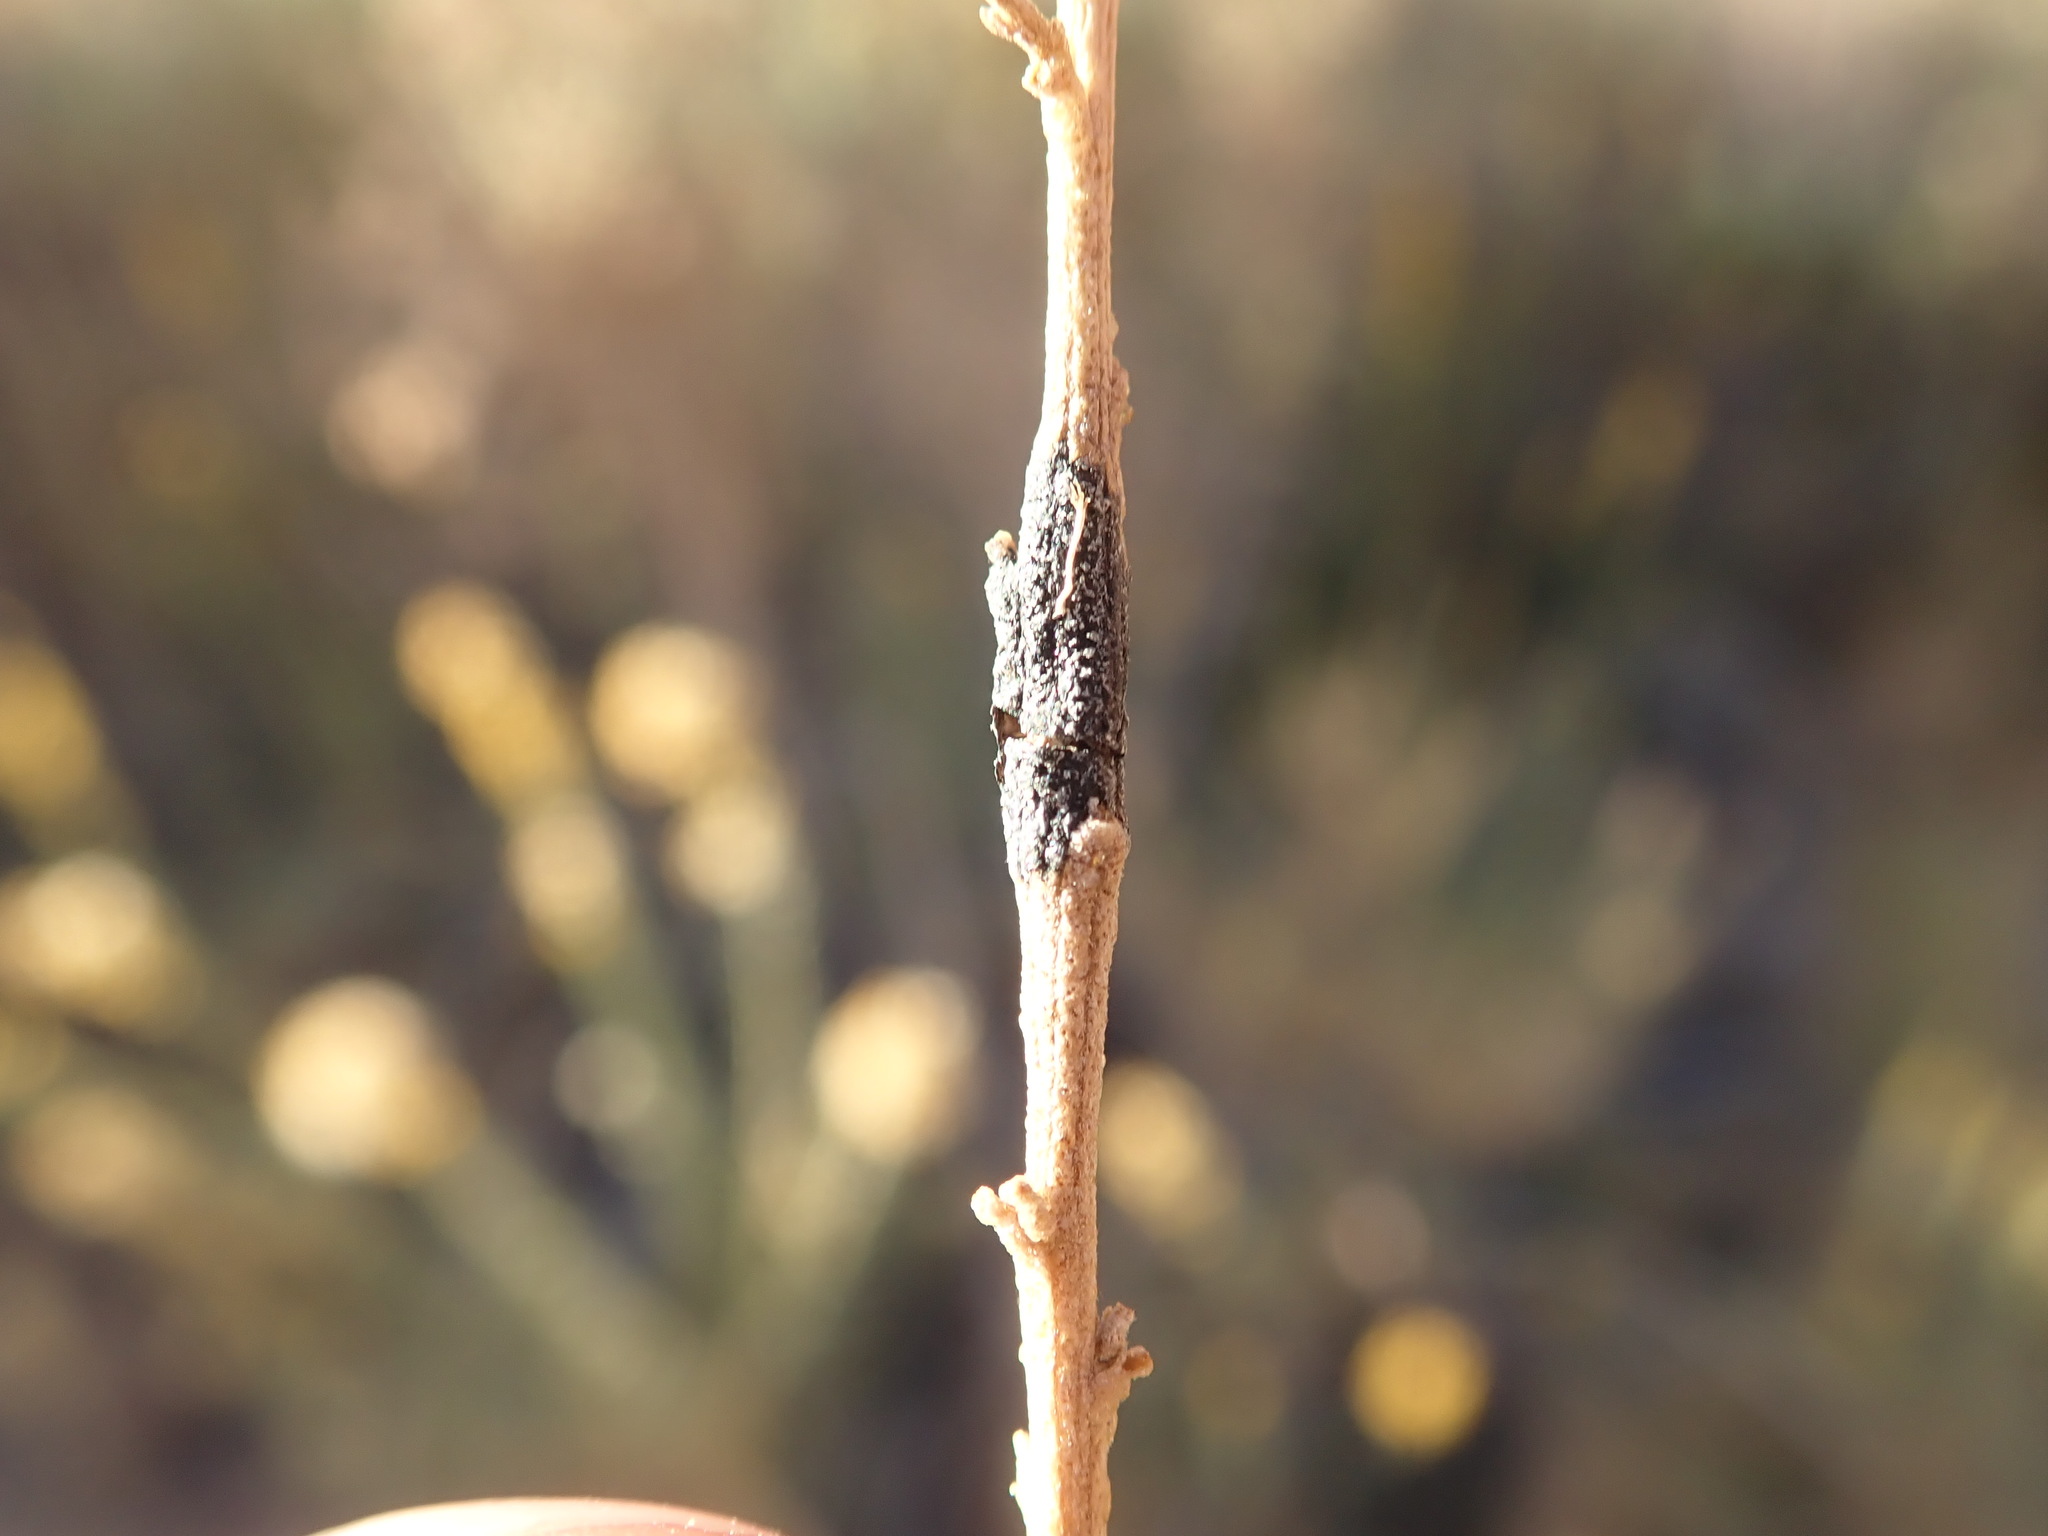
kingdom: Plantae
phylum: Tracheophyta
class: Magnoliopsida
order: Asterales
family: Asteraceae
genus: Ericameria
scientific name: Ericameria paniculata
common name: Punctate rabbitbrush
